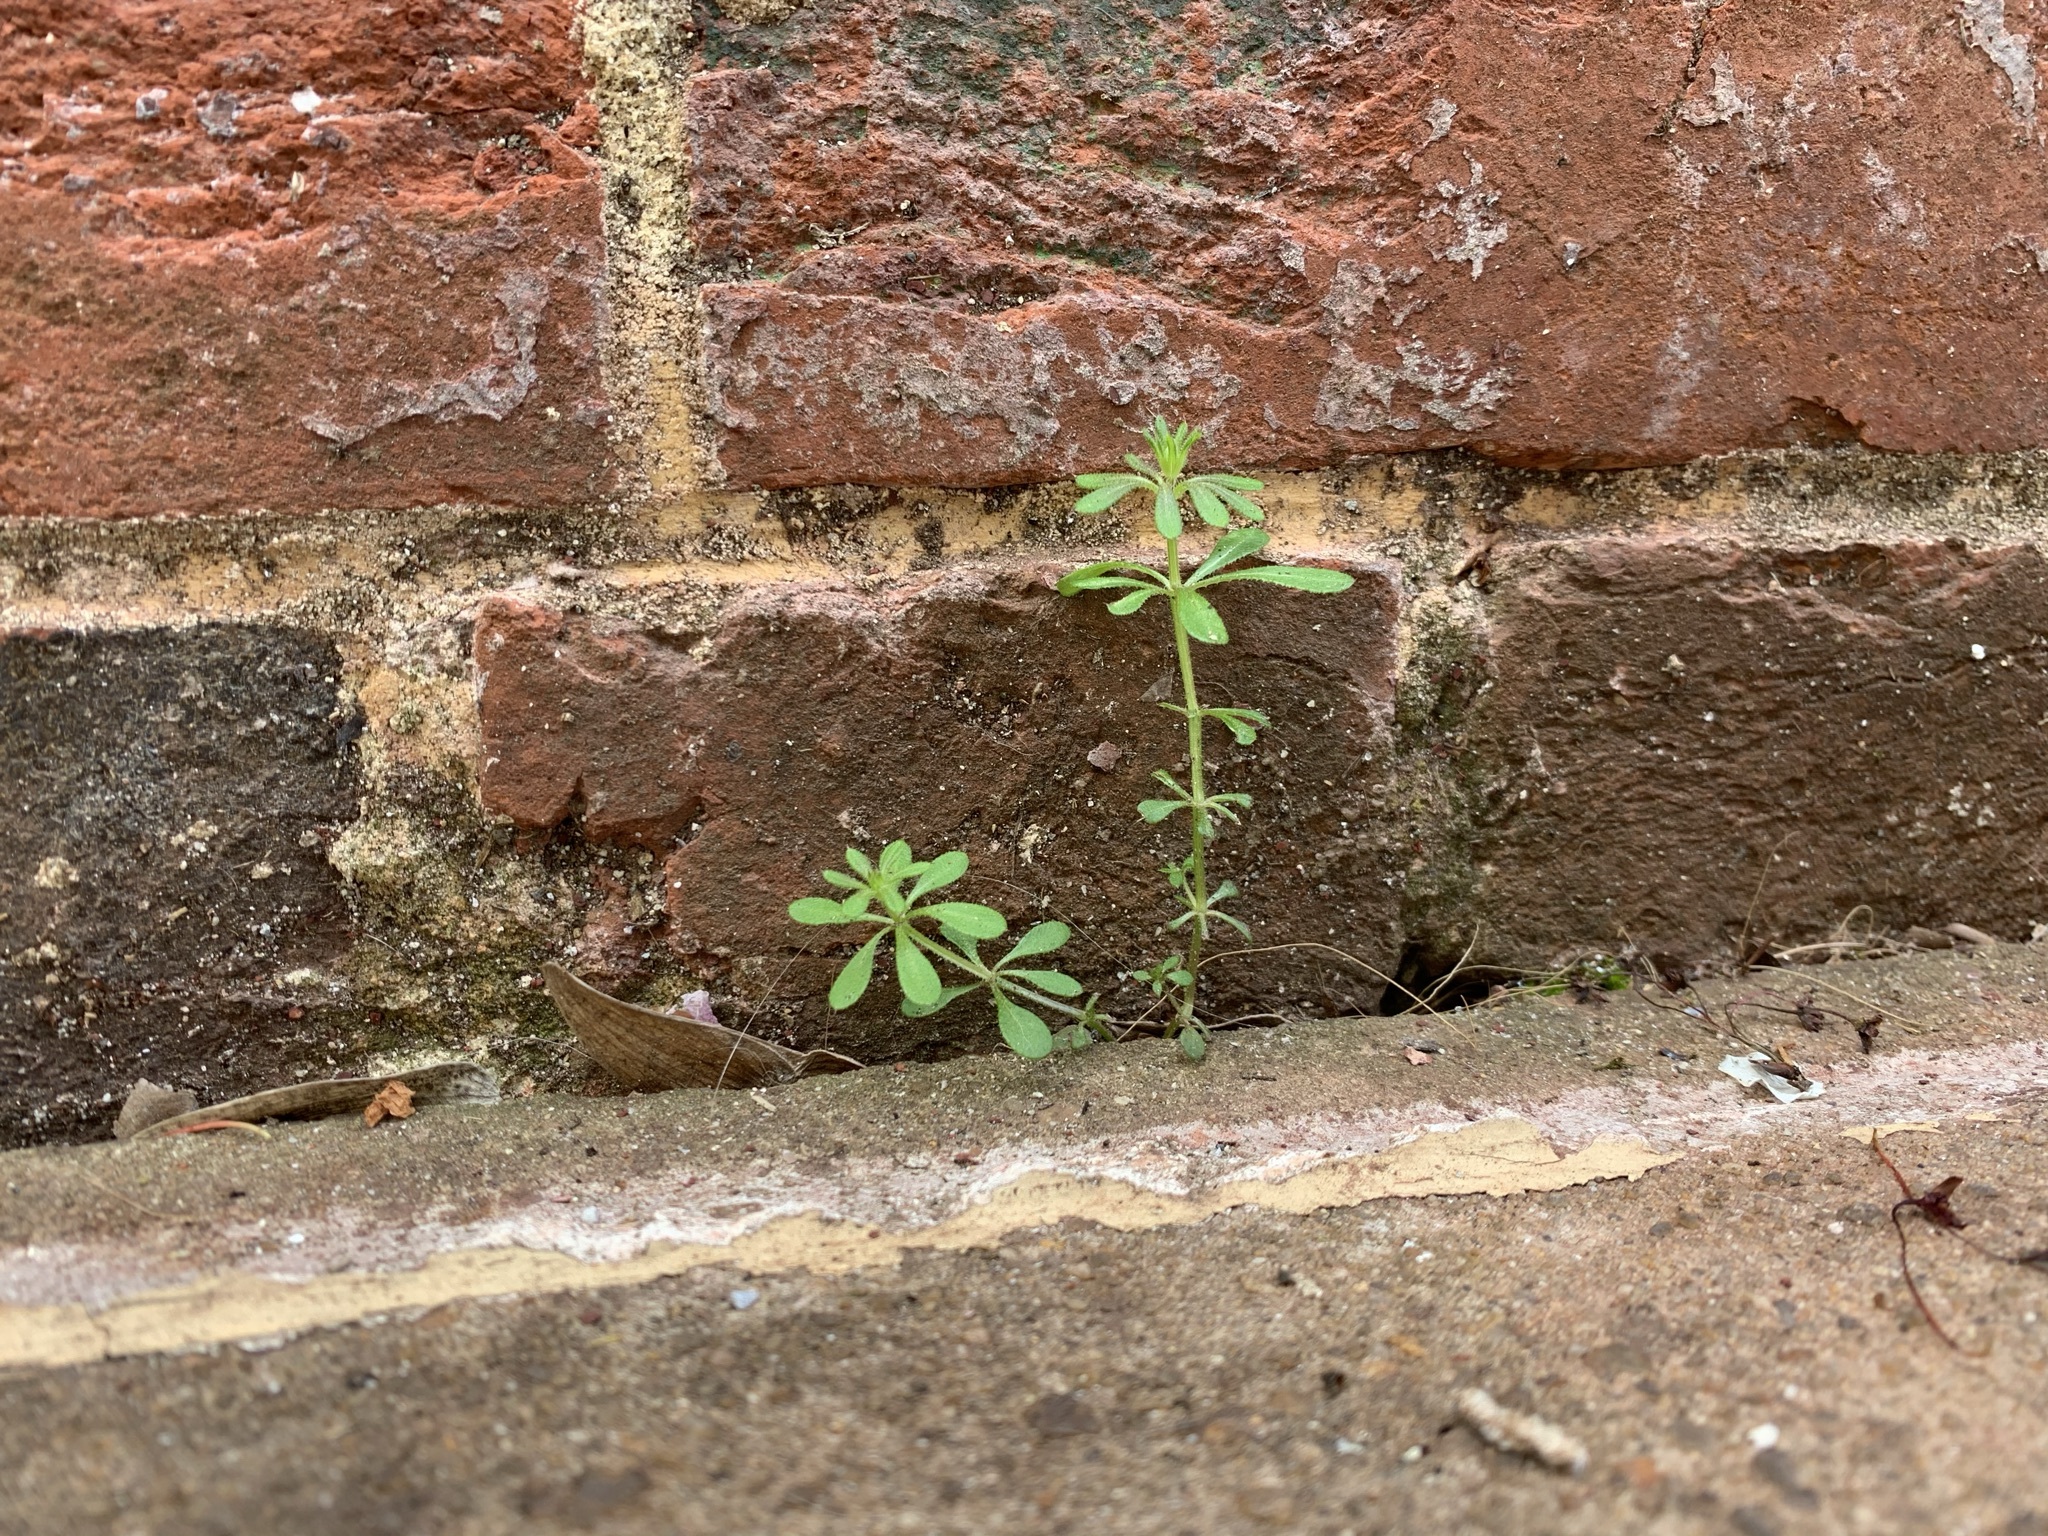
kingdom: Plantae
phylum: Tracheophyta
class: Magnoliopsida
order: Gentianales
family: Rubiaceae
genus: Galium
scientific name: Galium aparine
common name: Cleavers
